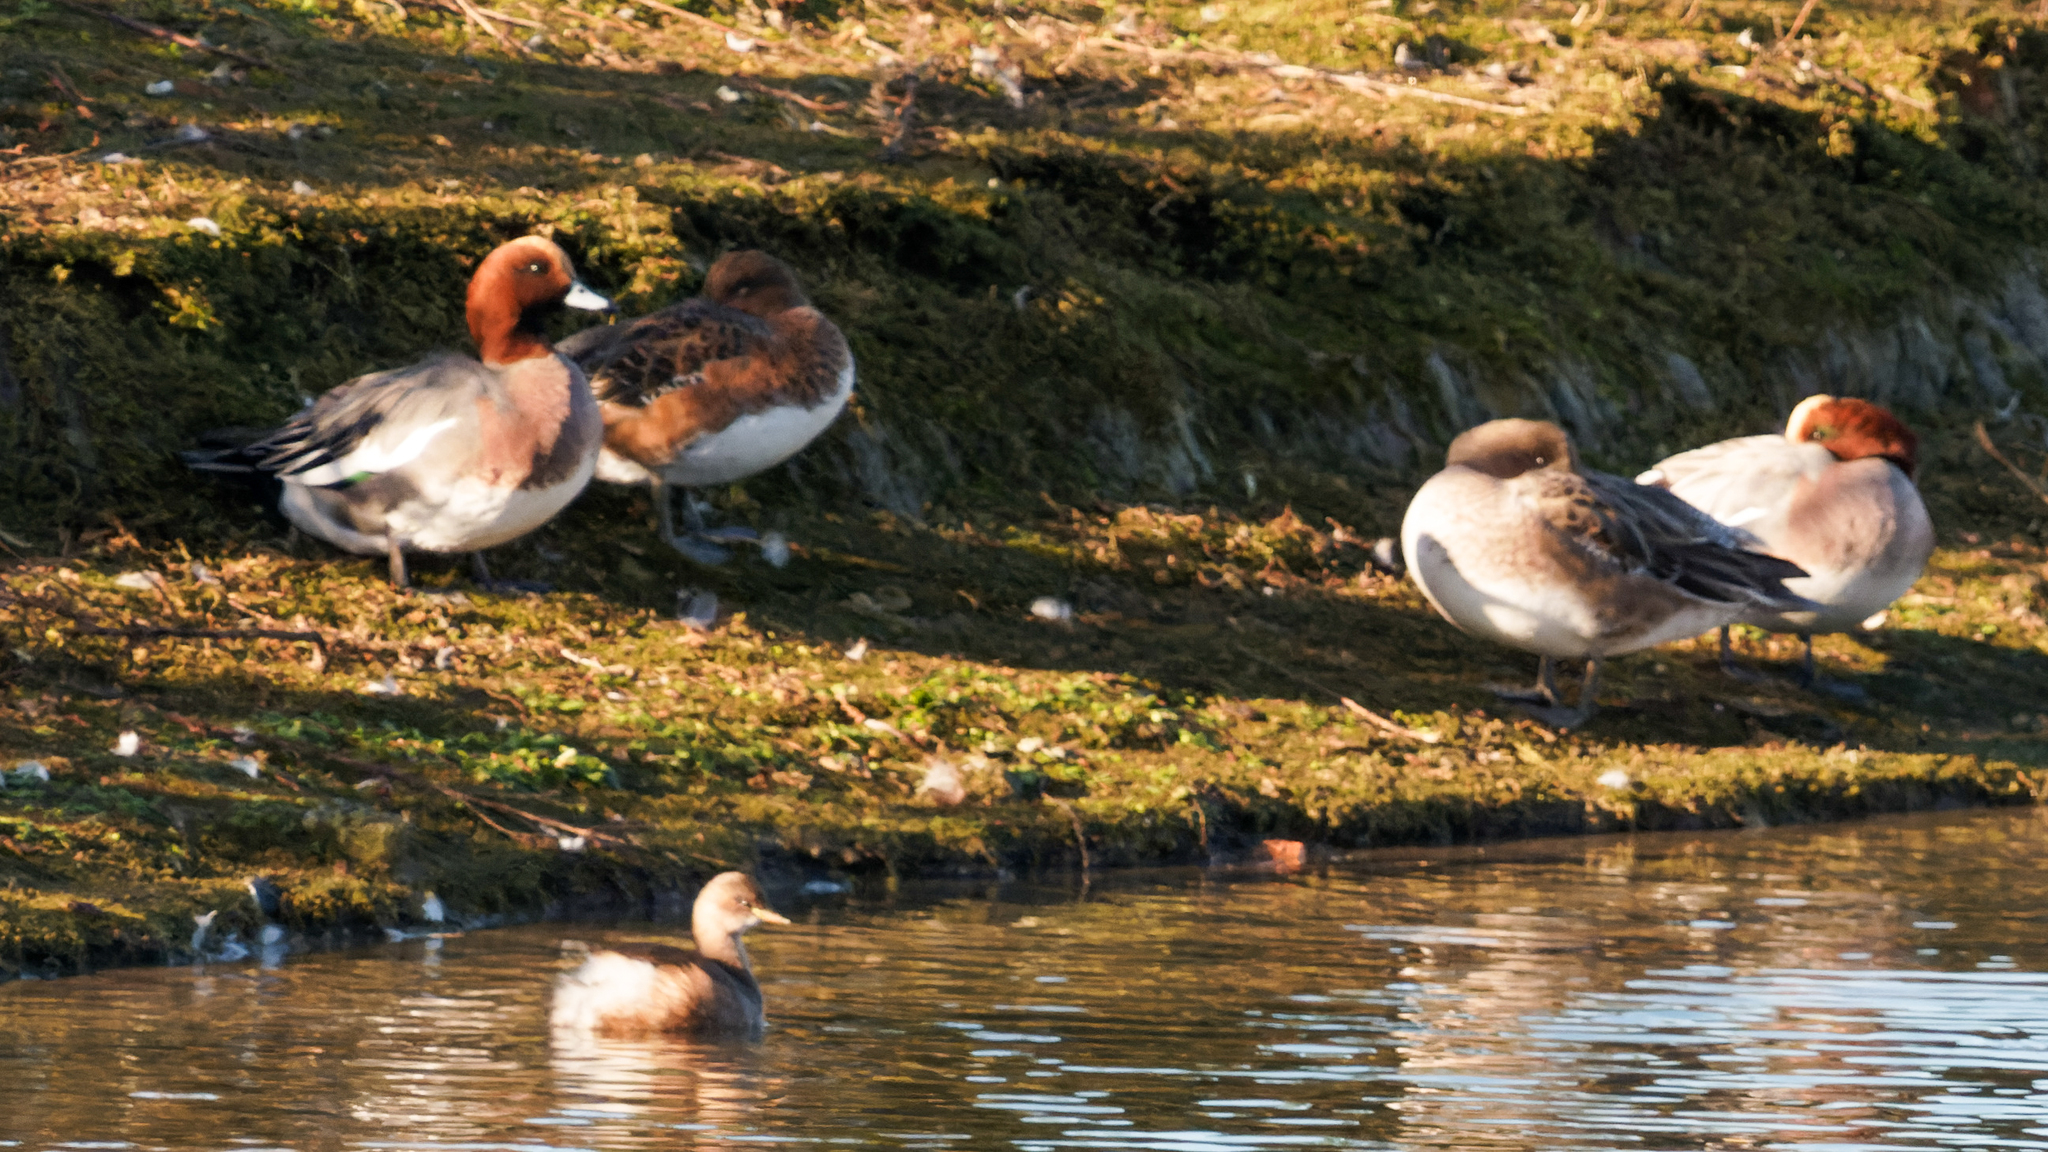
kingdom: Animalia
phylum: Chordata
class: Aves
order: Anseriformes
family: Anatidae
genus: Mareca
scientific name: Mareca penelope
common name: Eurasian wigeon
